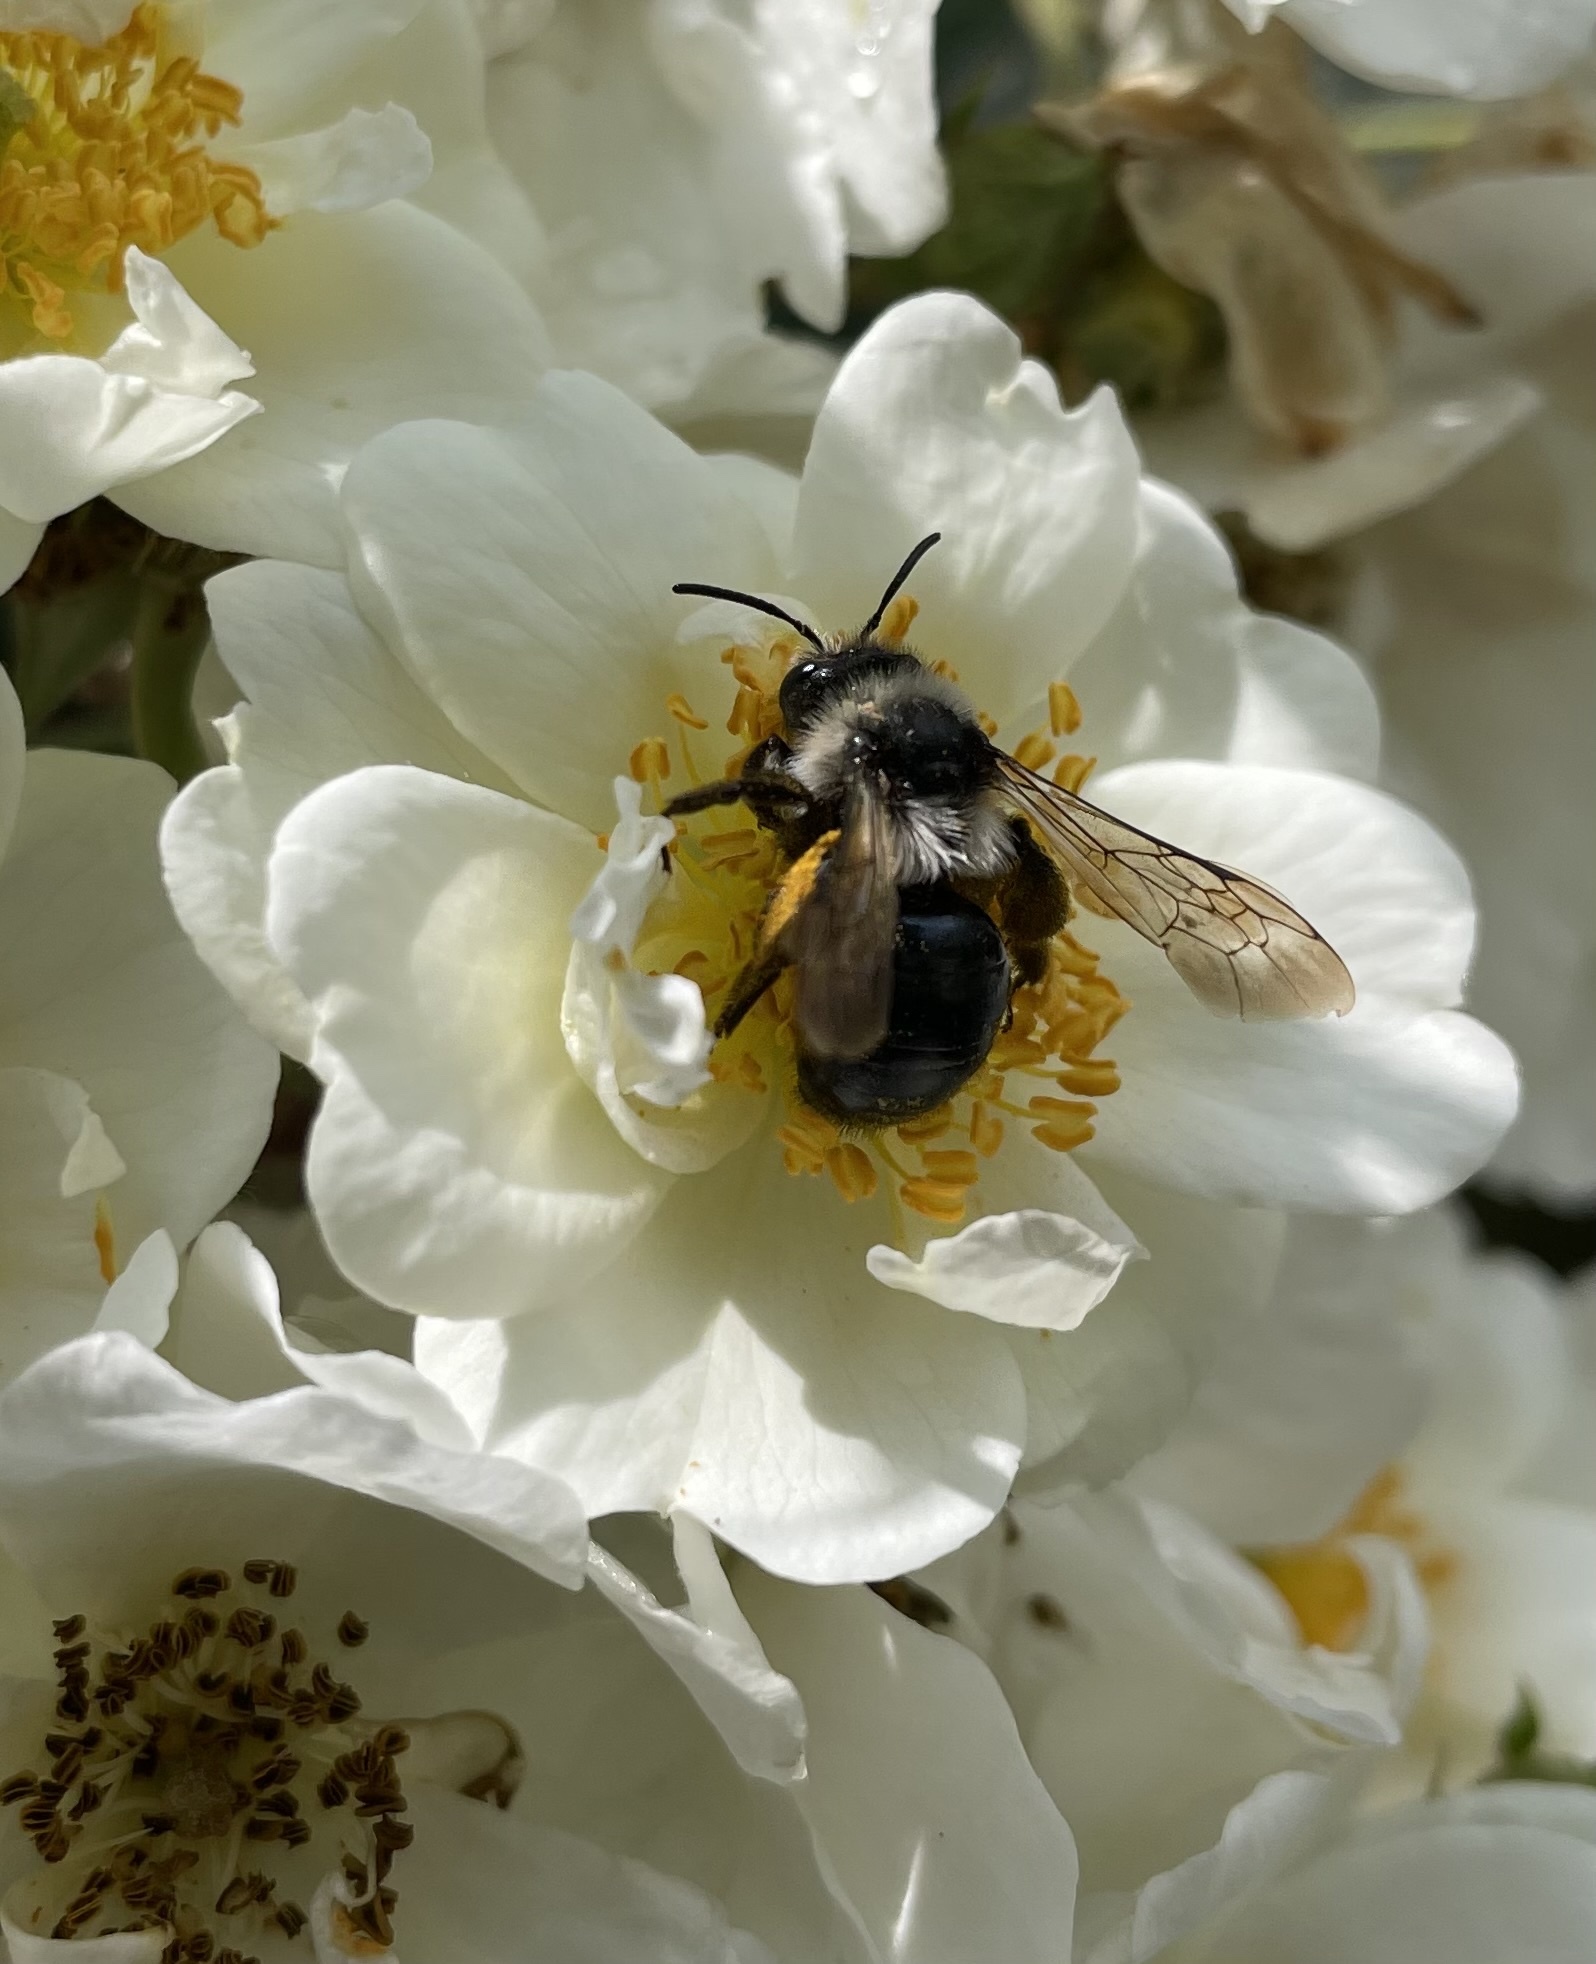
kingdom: Animalia
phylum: Arthropoda
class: Insecta
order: Hymenoptera
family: Andrenidae
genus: Andrena
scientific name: Andrena cineraria
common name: Ashy mining bee
